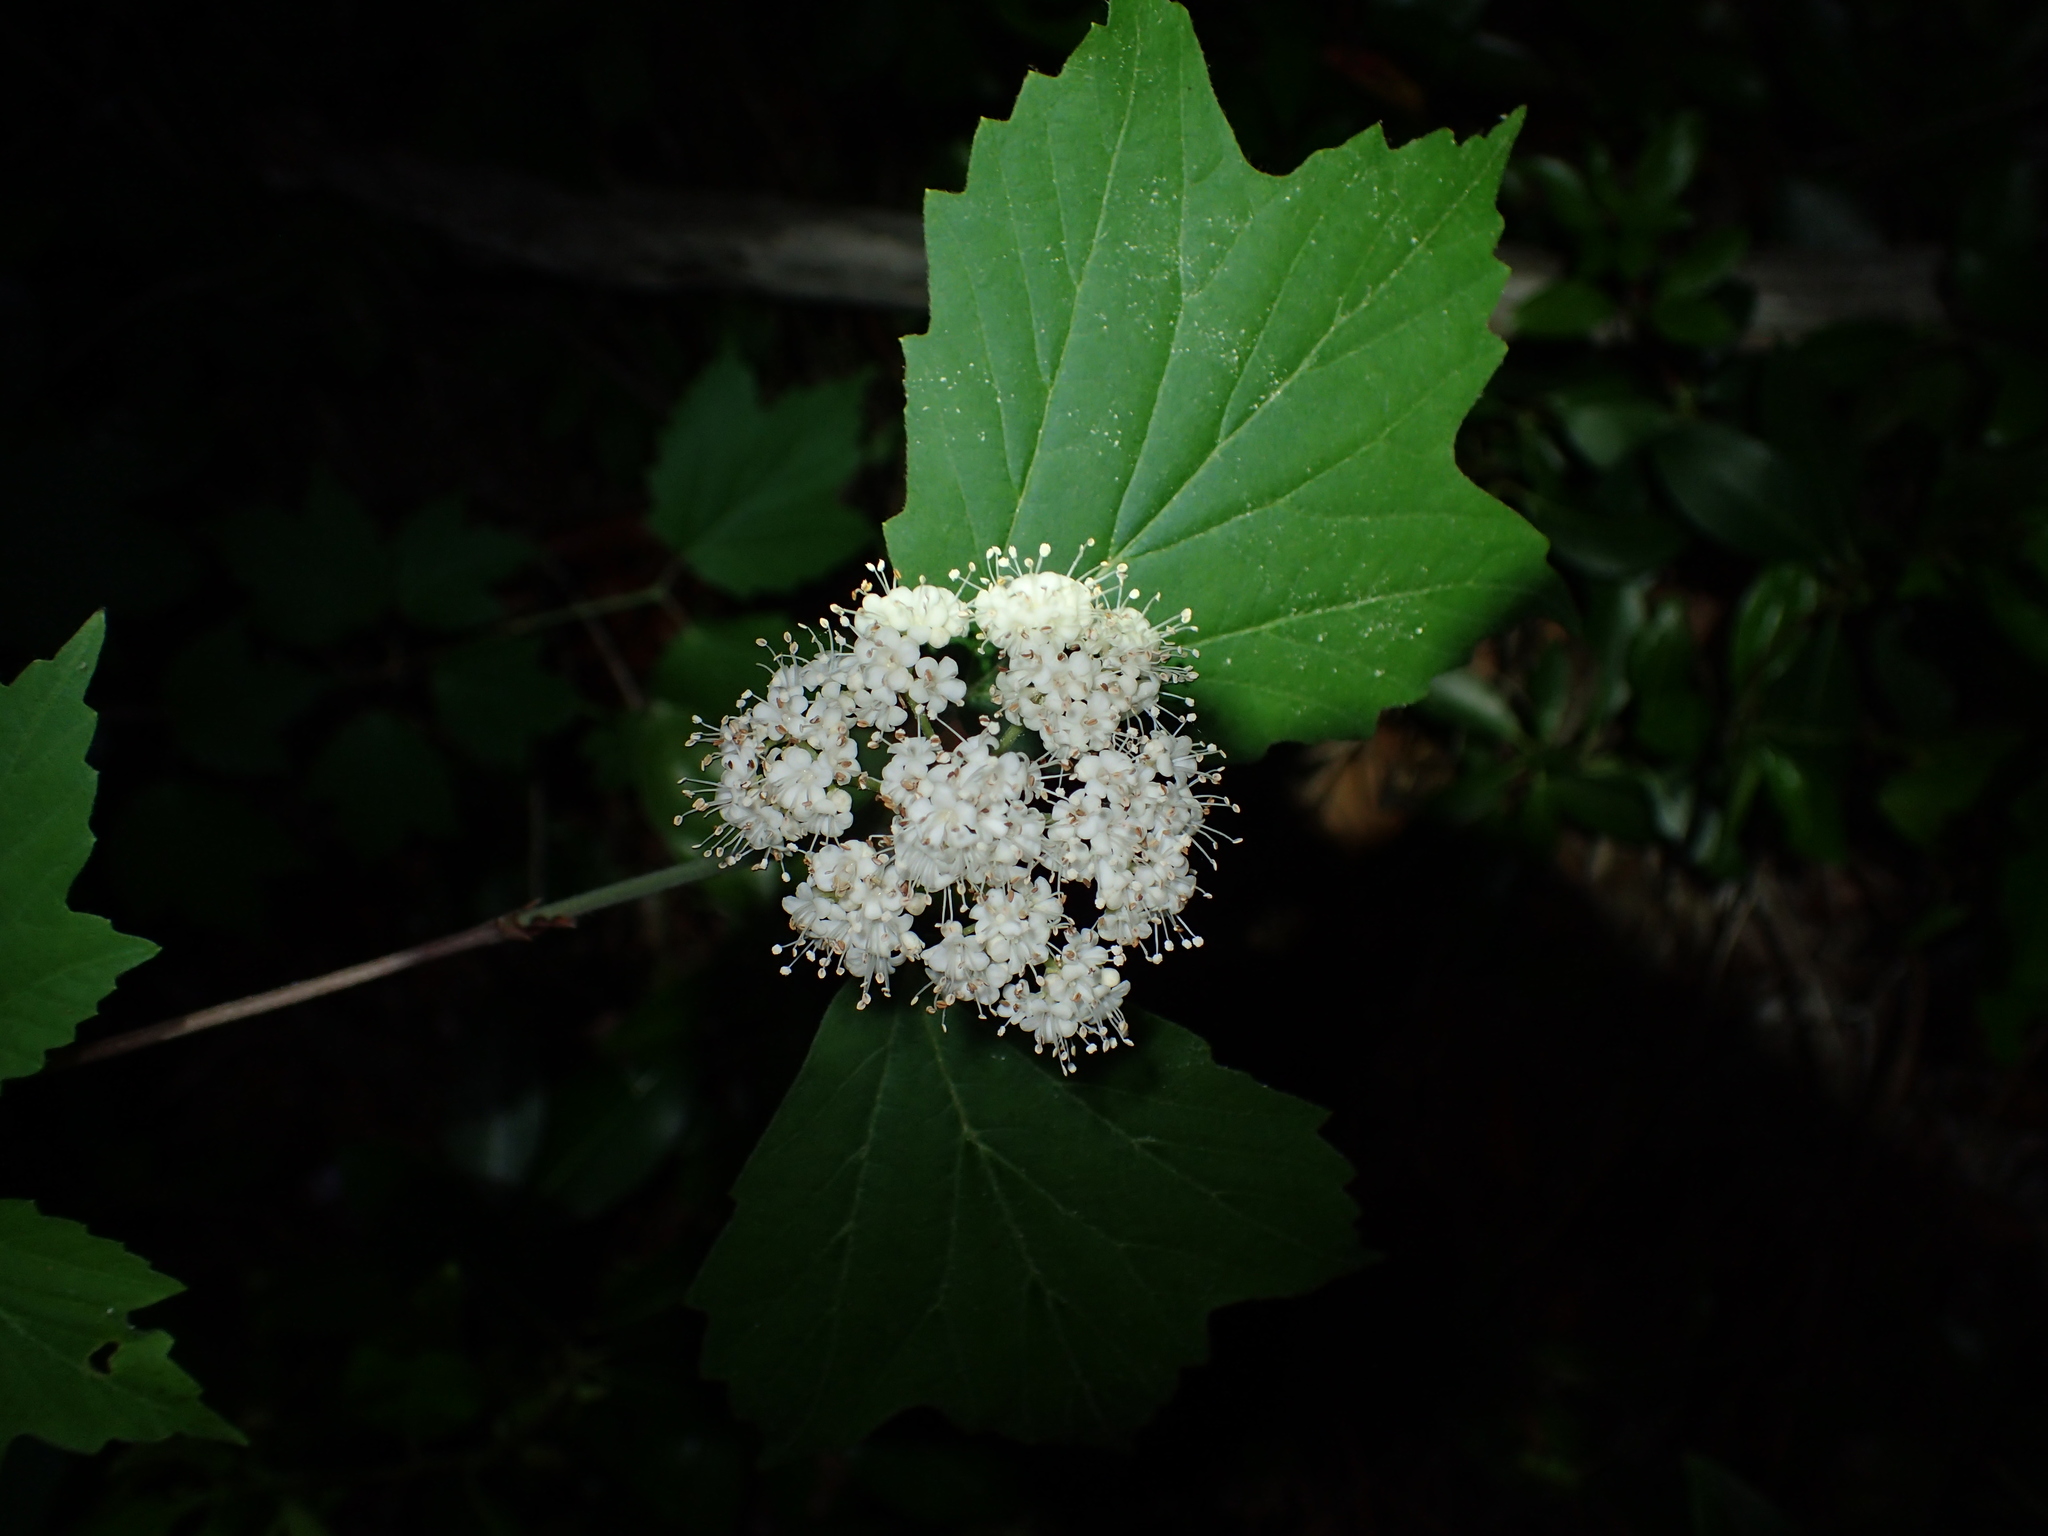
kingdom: Plantae
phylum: Tracheophyta
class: Magnoliopsida
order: Dipsacales
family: Viburnaceae
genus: Viburnum
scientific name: Viburnum acerifolium
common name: Dockmackie
